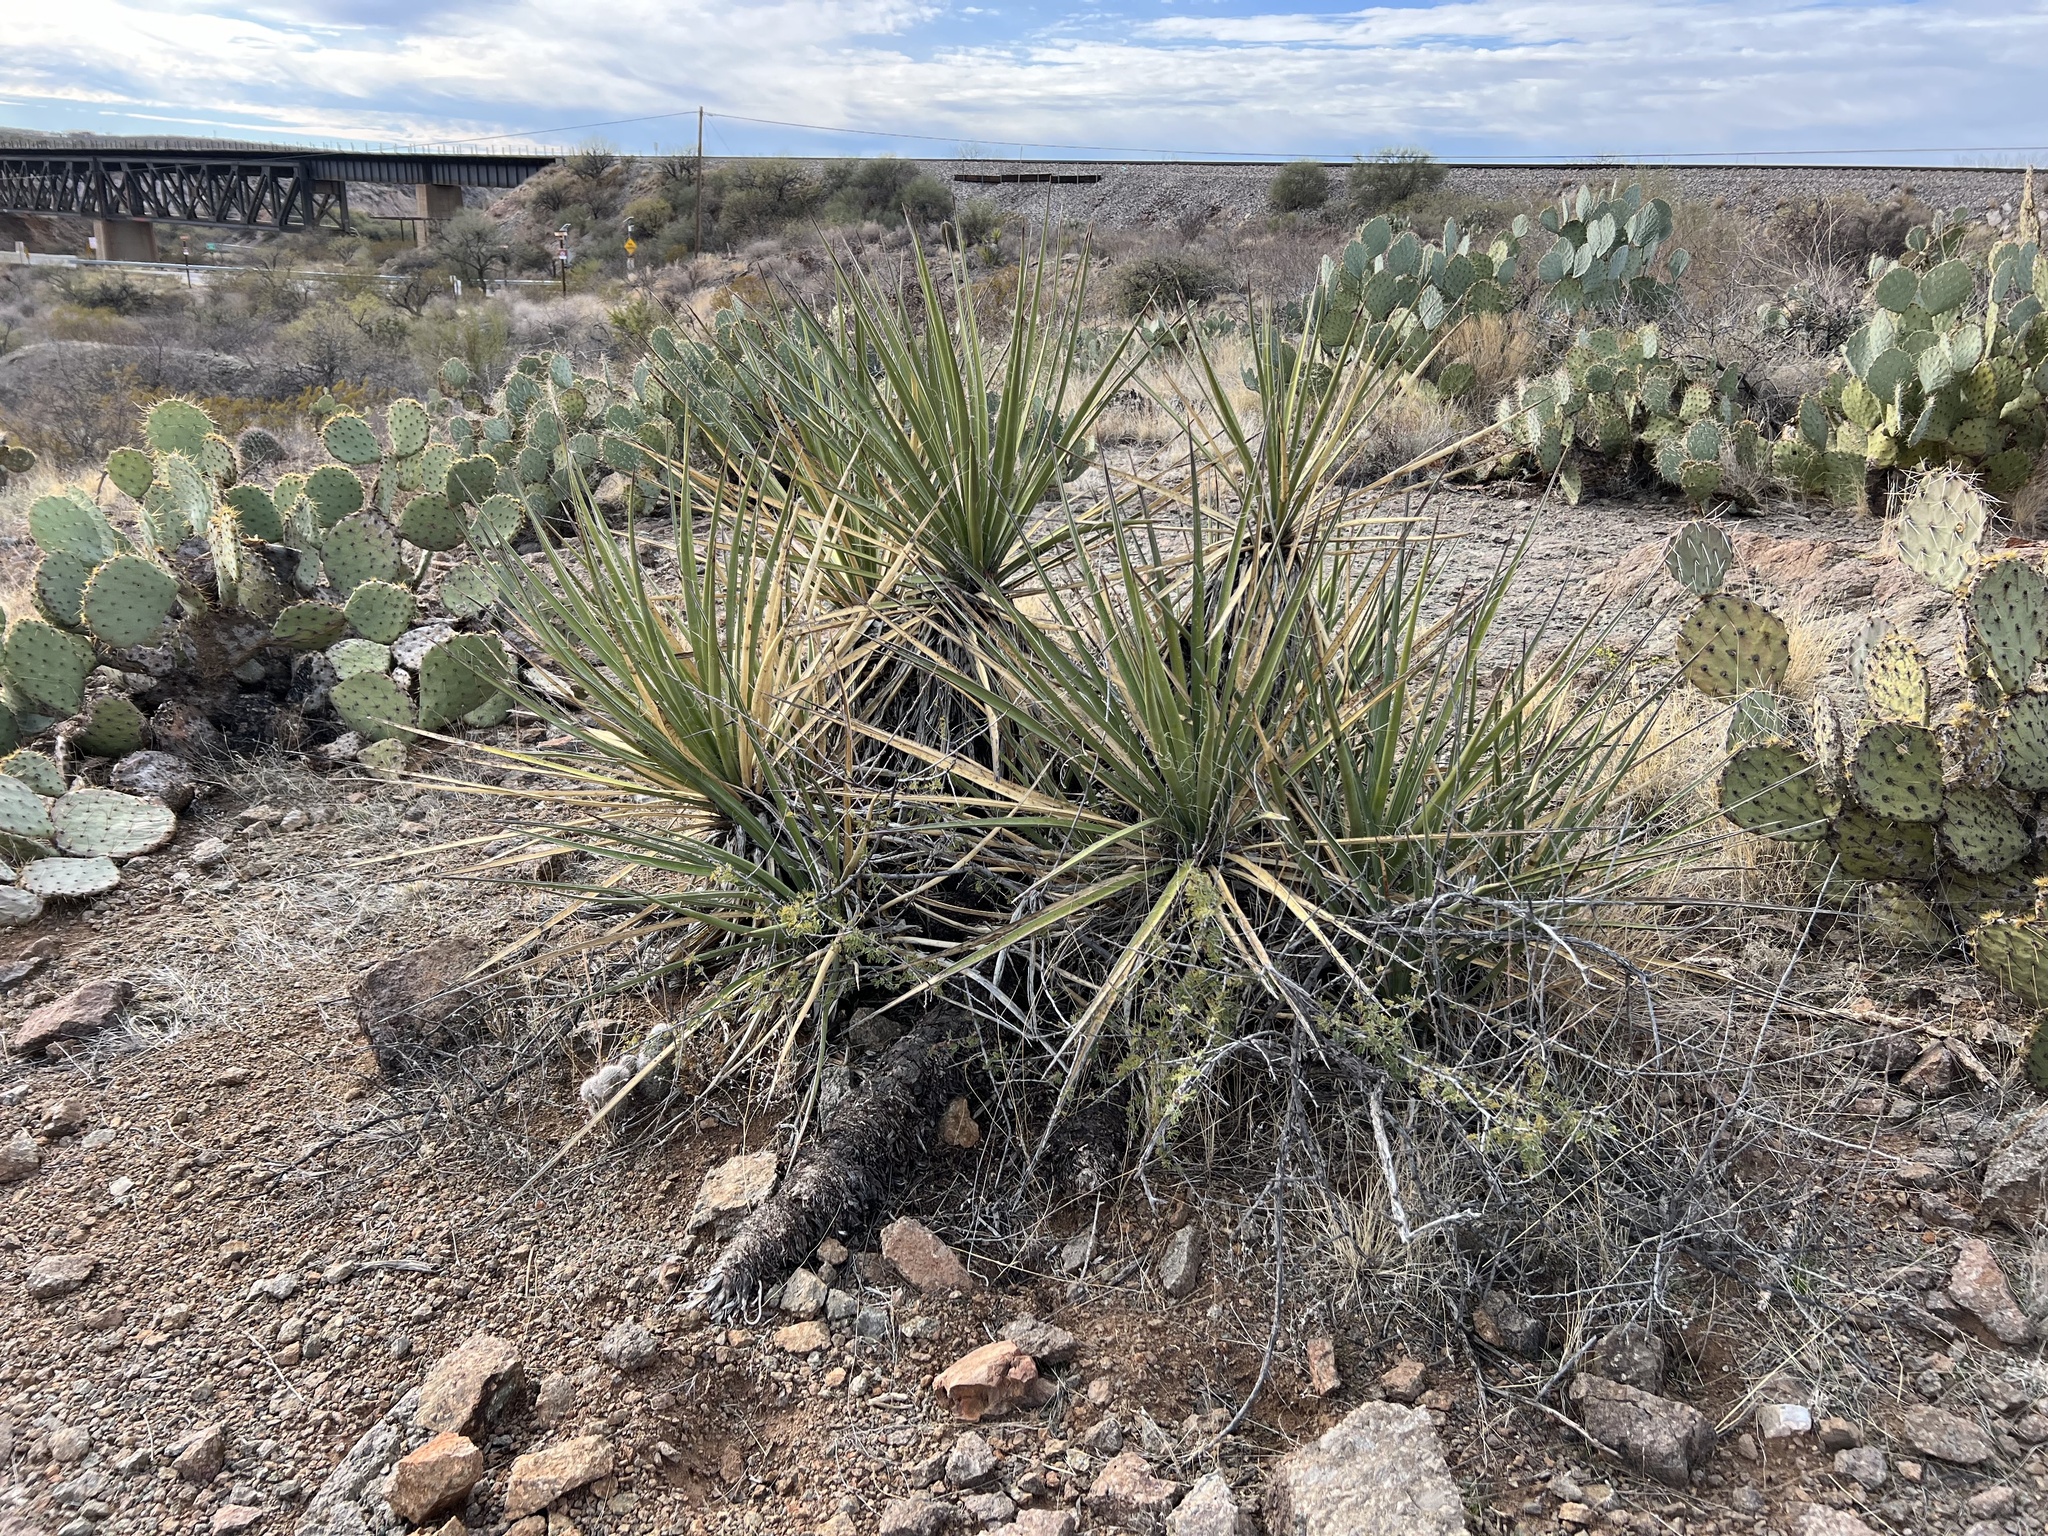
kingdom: Plantae
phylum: Tracheophyta
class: Liliopsida
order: Asparagales
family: Asparagaceae
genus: Yucca
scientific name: Yucca baccata
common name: Banana yucca
